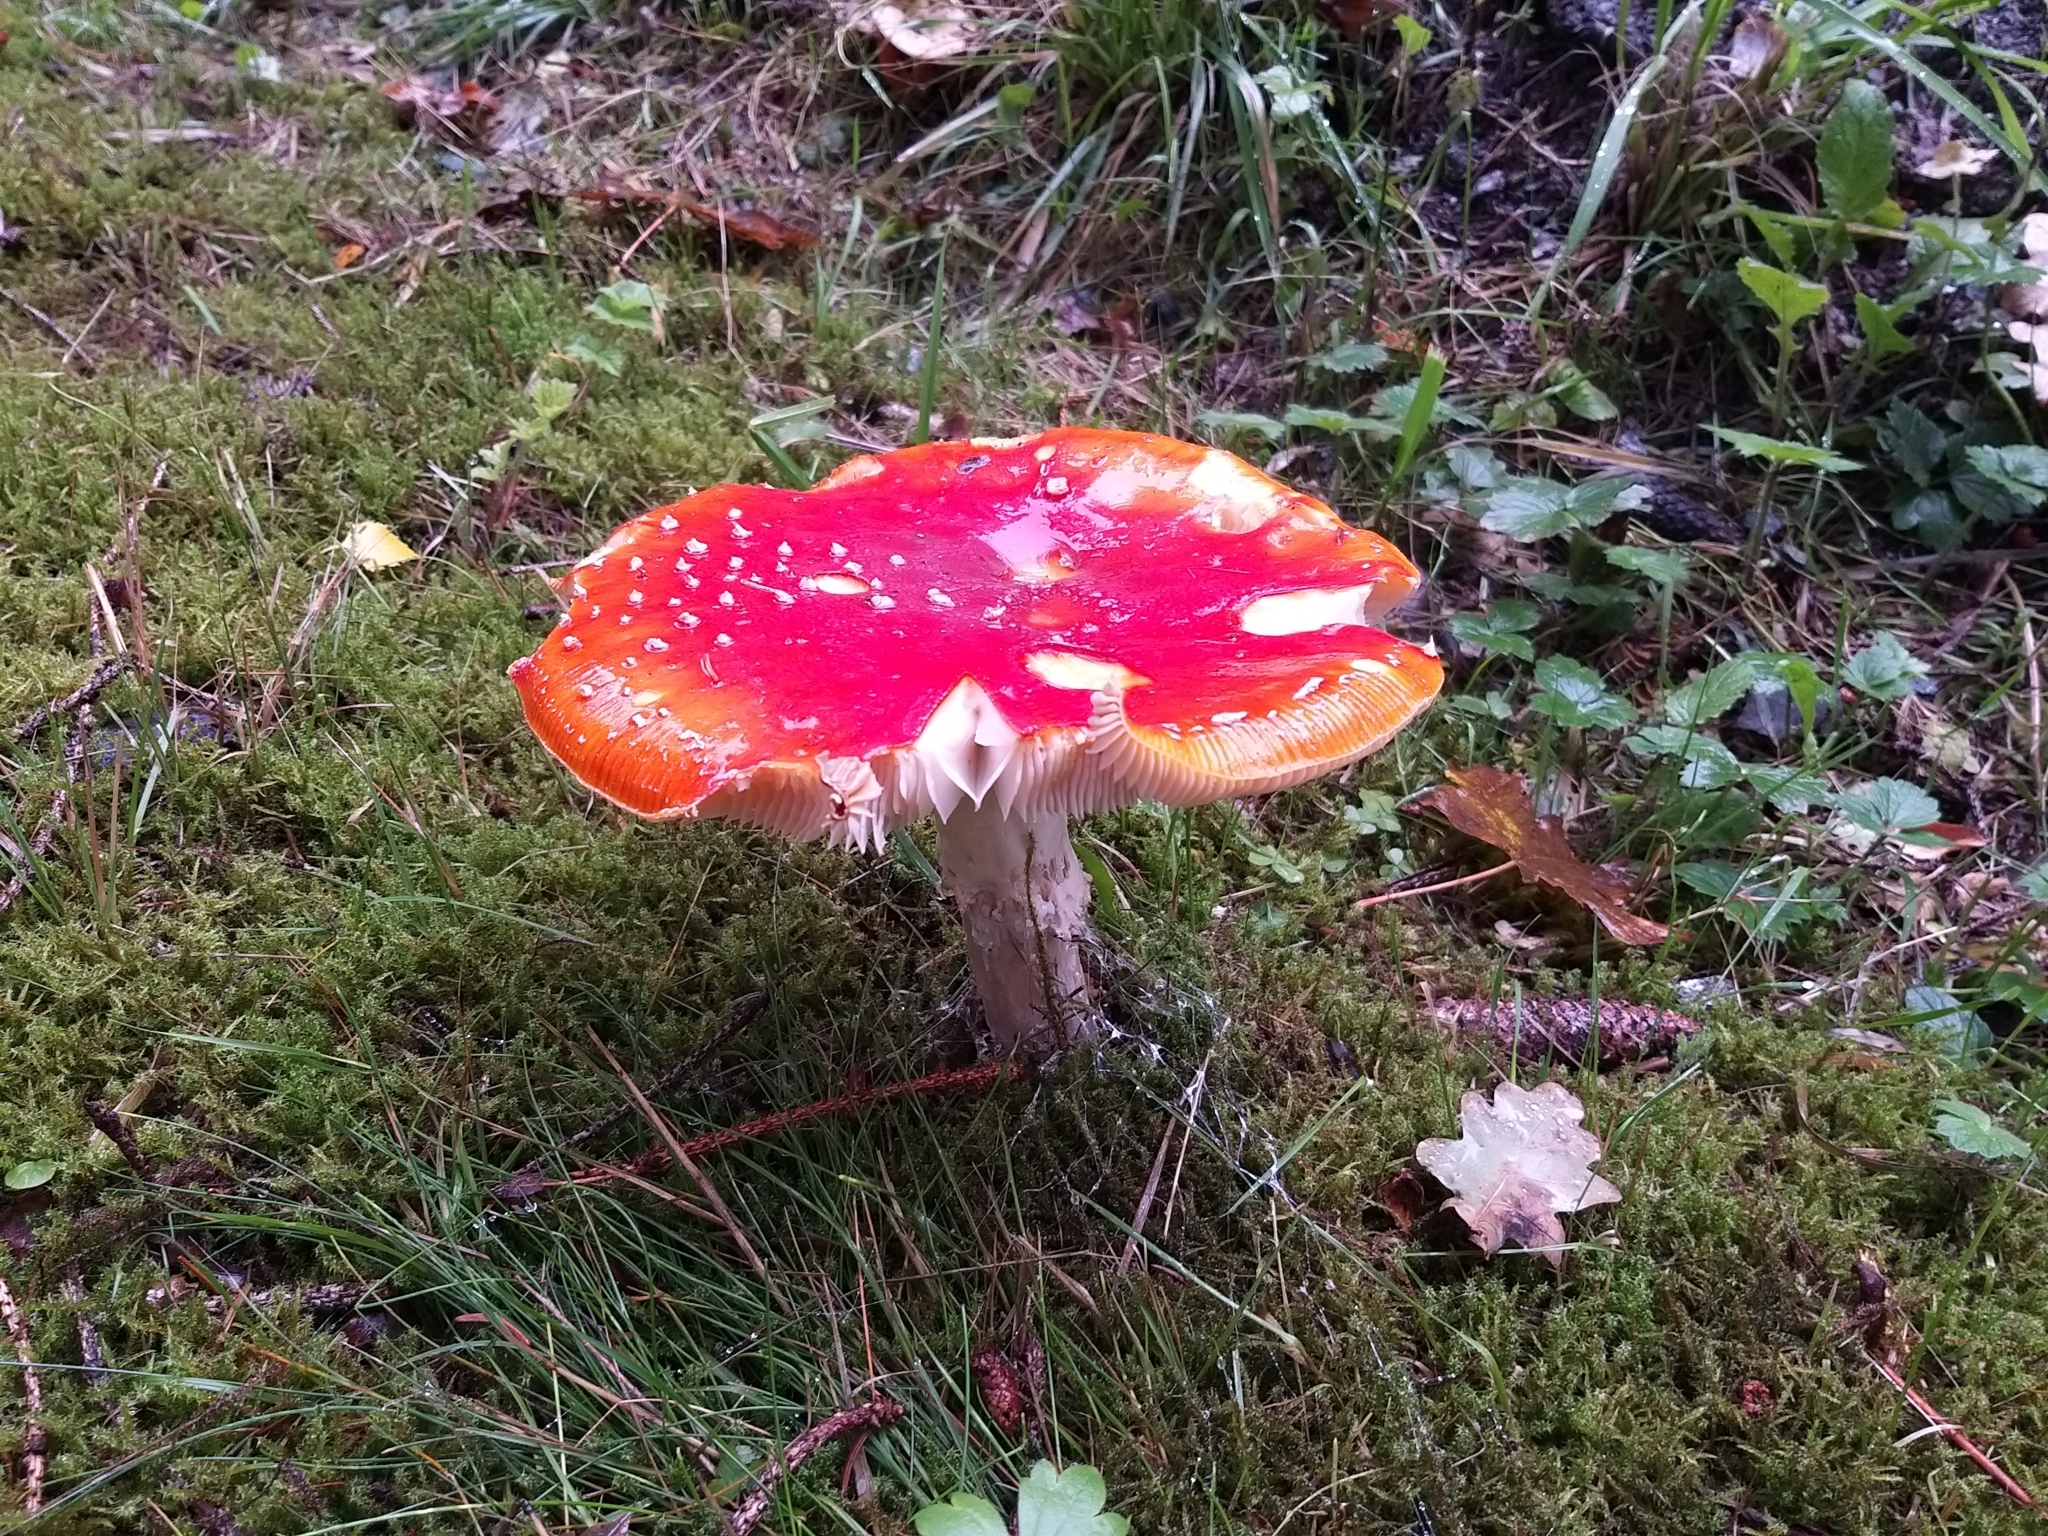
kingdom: Fungi
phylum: Basidiomycota
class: Agaricomycetes
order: Agaricales
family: Amanitaceae
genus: Amanita
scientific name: Amanita muscaria
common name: Fly agaric
